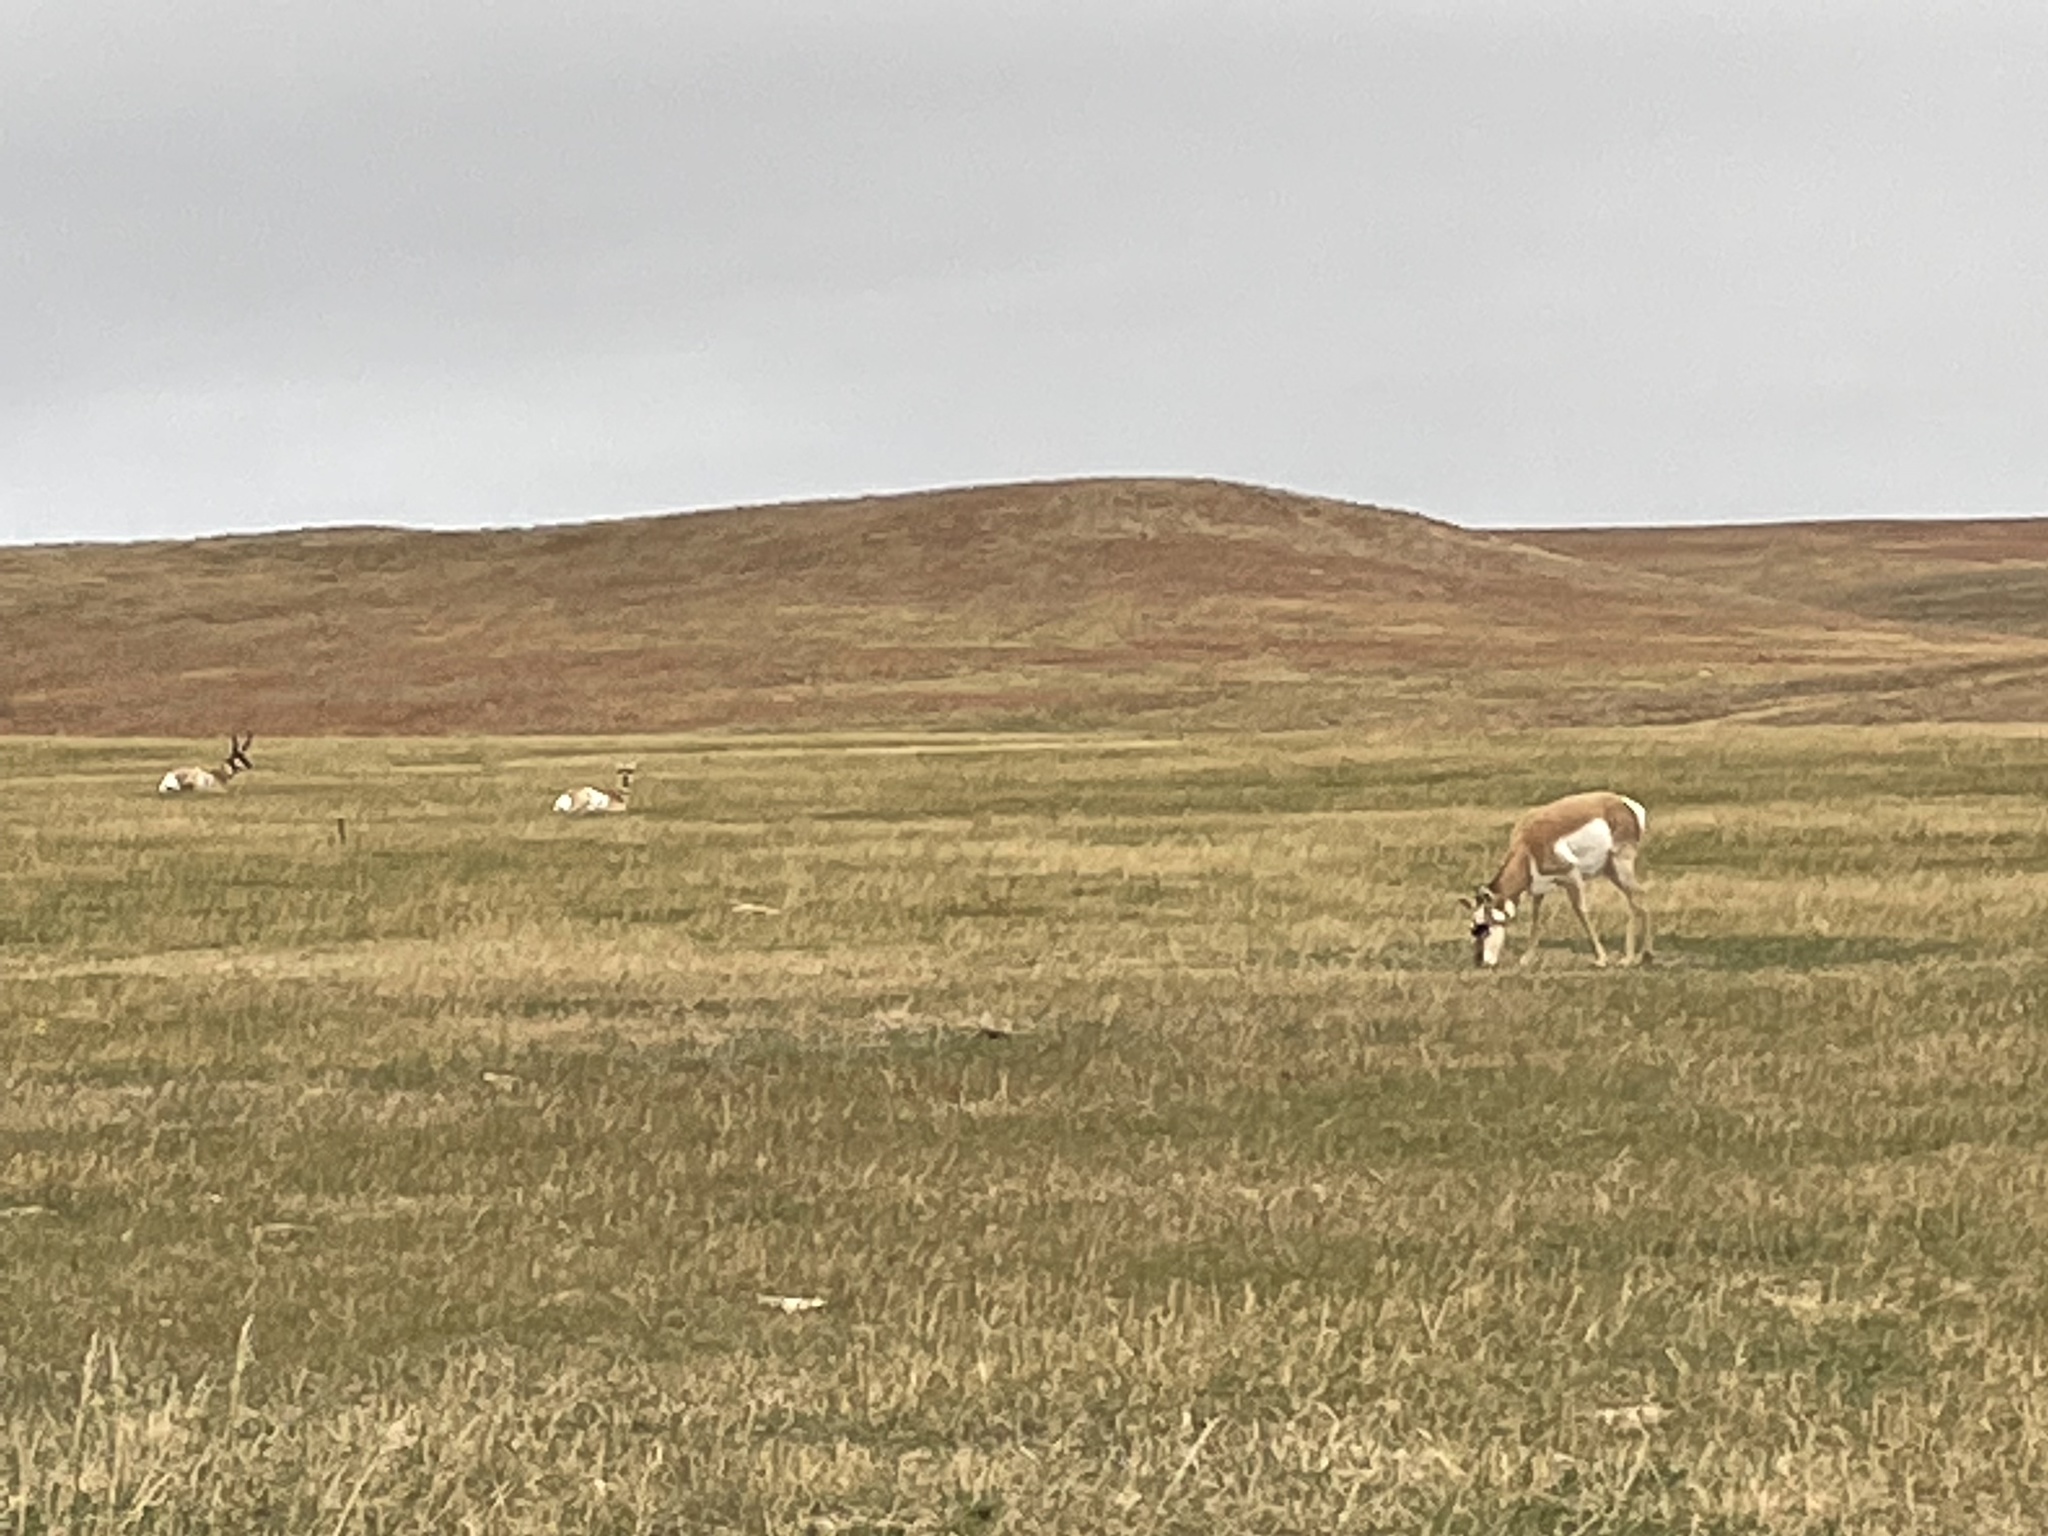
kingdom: Animalia
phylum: Chordata
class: Mammalia
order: Artiodactyla
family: Antilocapridae
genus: Antilocapra
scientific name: Antilocapra americana
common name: Pronghorn
